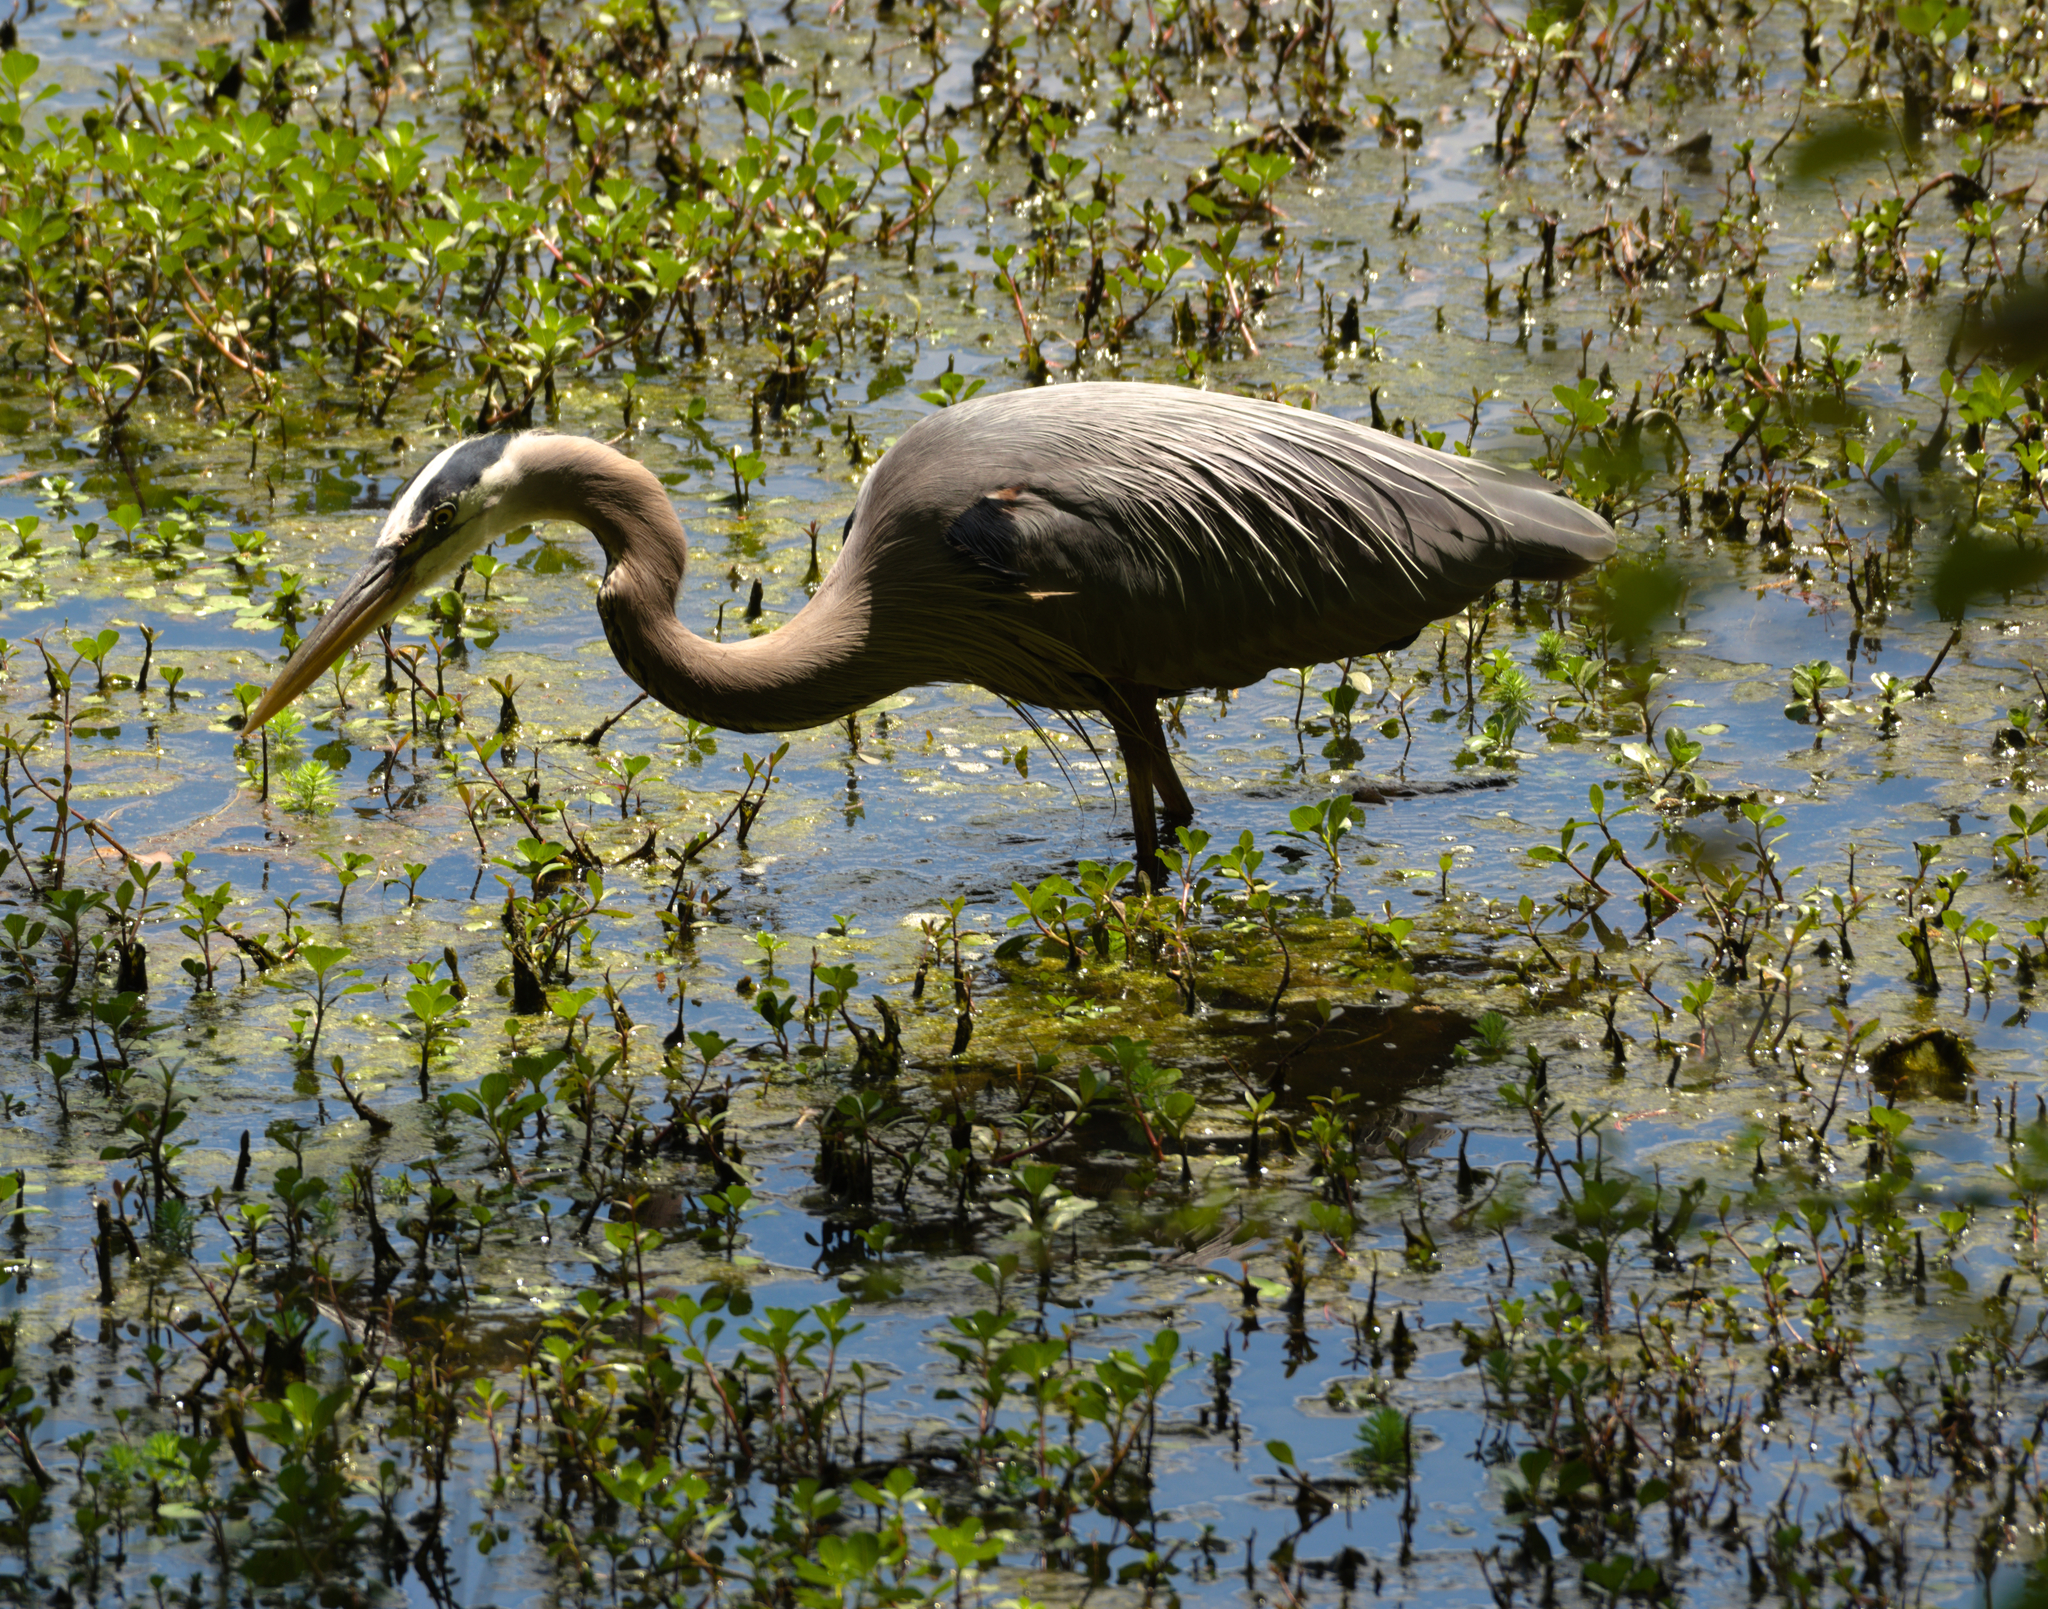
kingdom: Animalia
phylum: Chordata
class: Aves
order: Pelecaniformes
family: Ardeidae
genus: Ardea
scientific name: Ardea herodias
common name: Great blue heron
